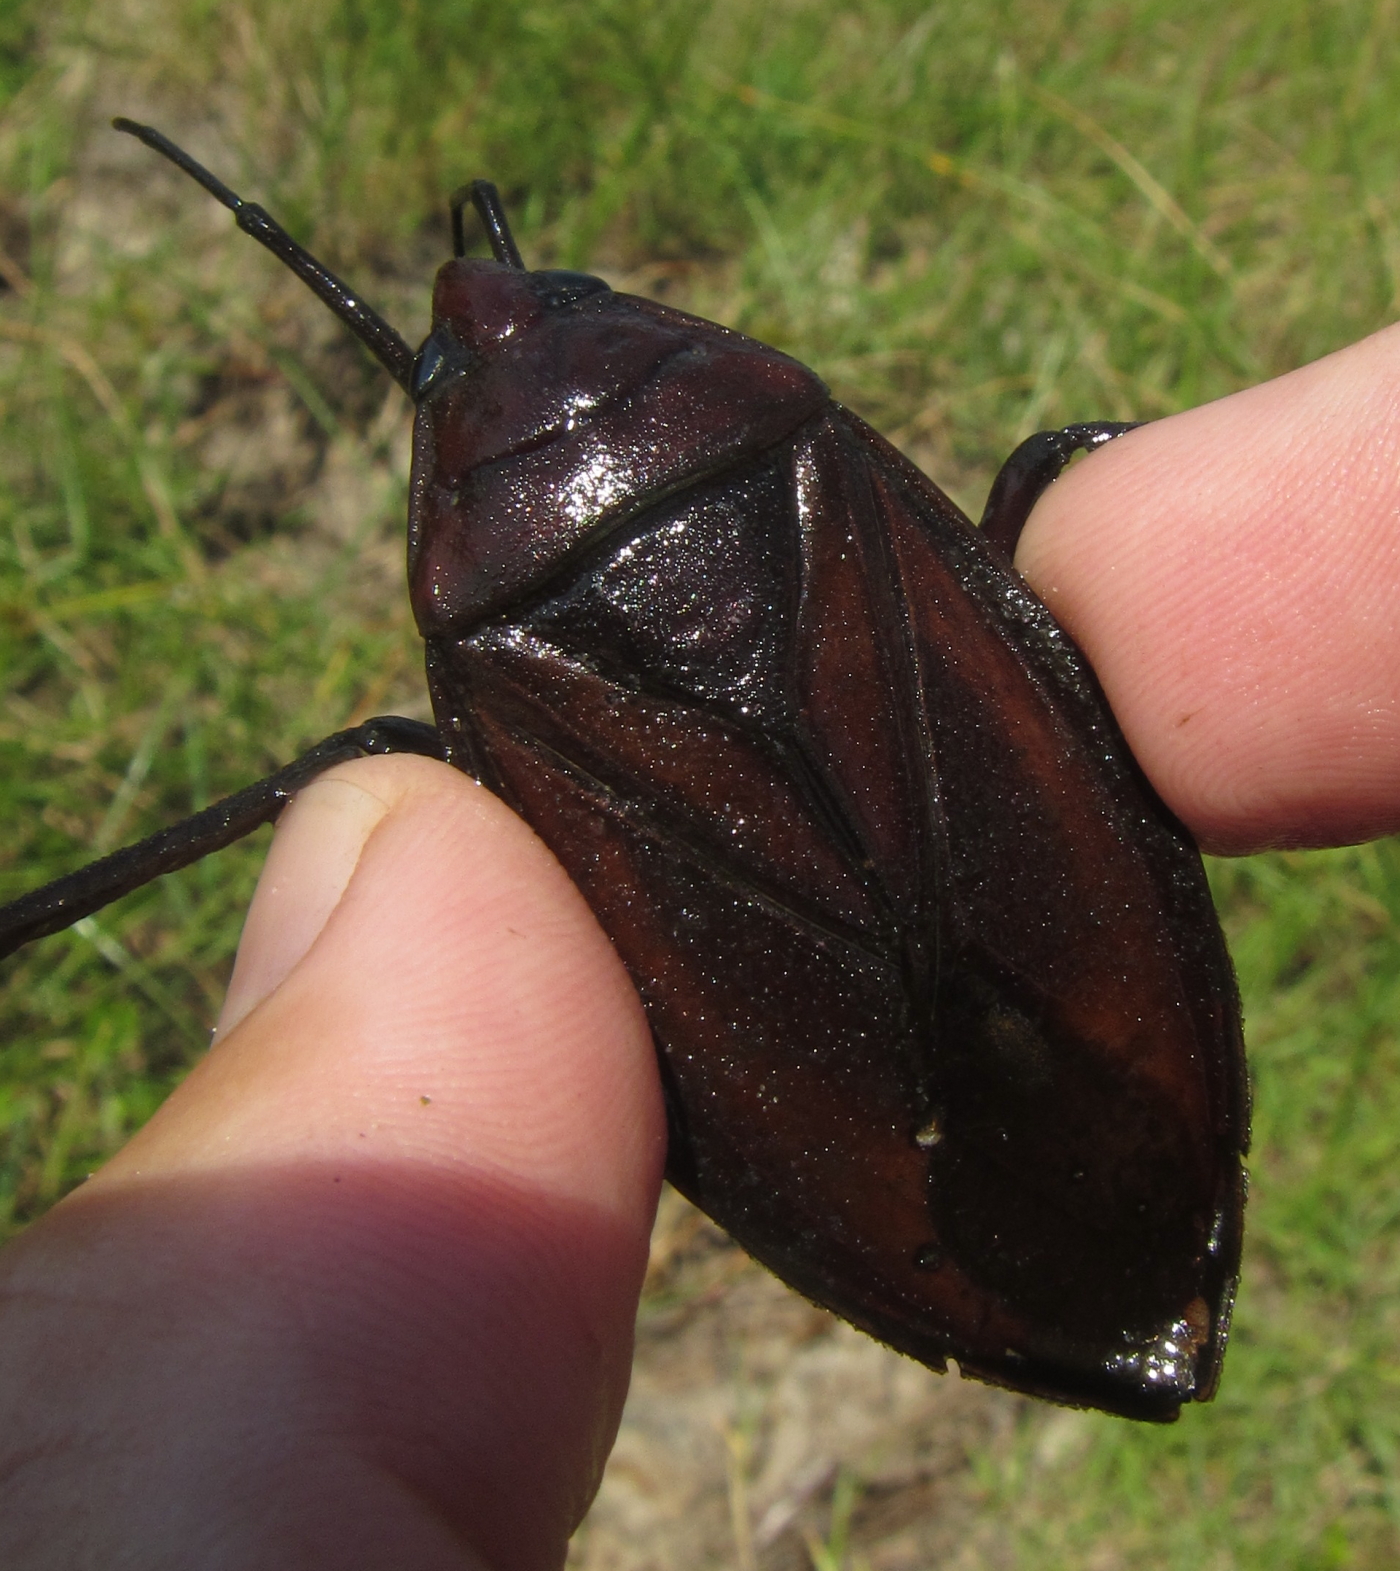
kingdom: Animalia
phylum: Arthropoda
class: Insecta
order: Hemiptera
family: Belostomatidae
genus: Limnogeton
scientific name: Limnogeton fieberi
